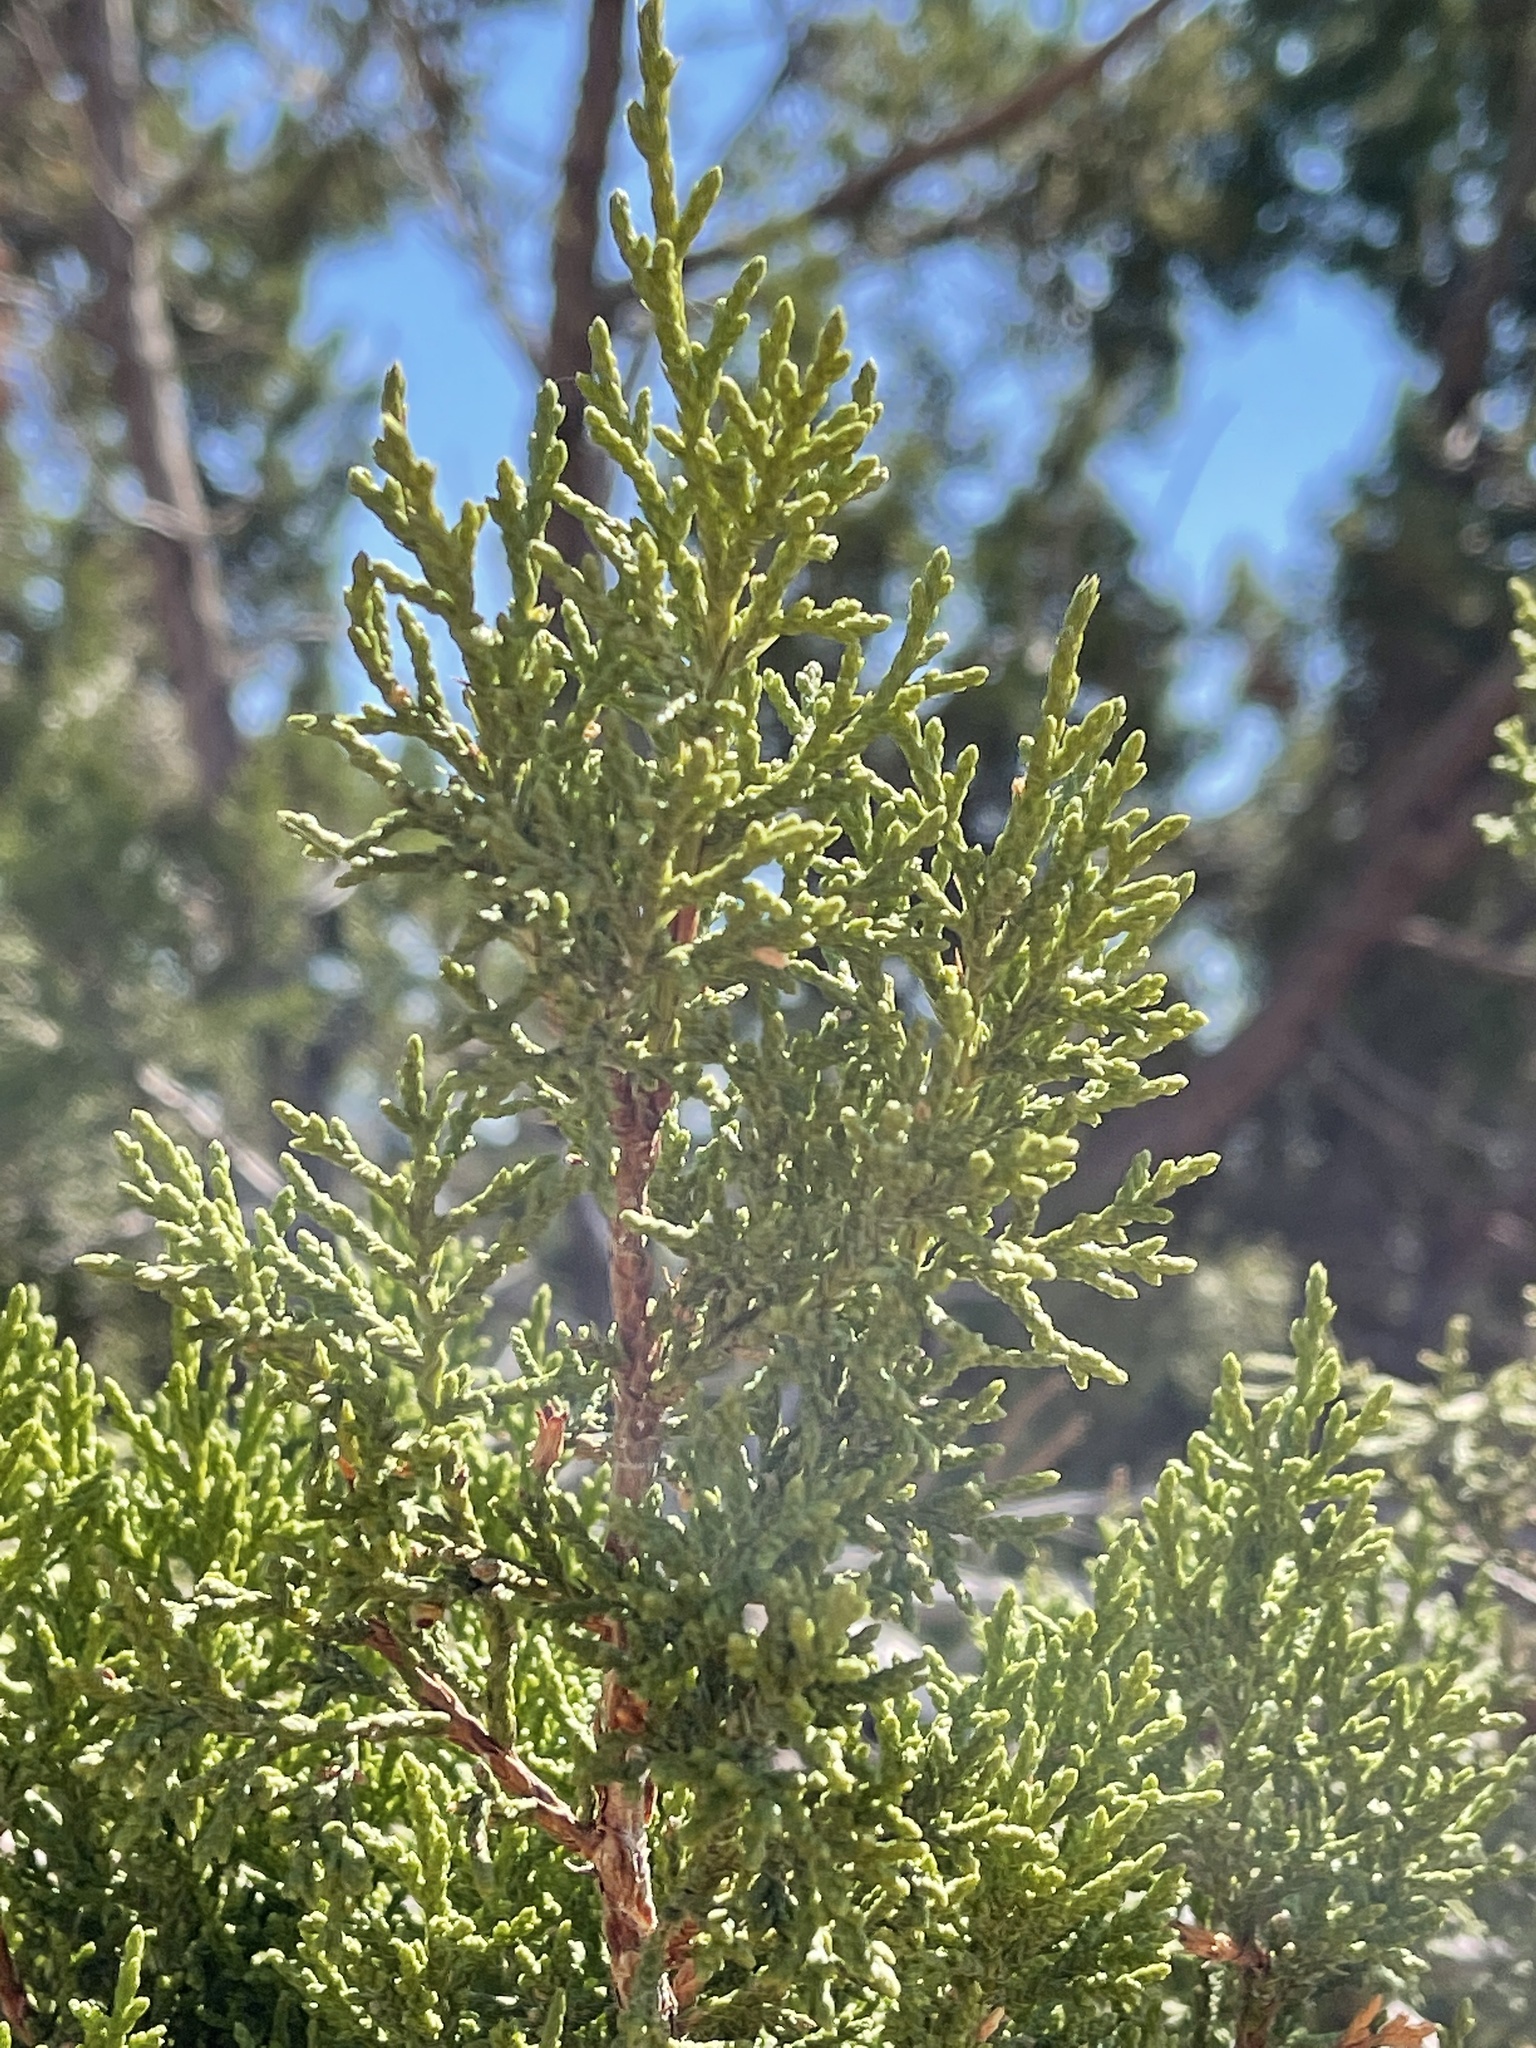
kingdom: Plantae
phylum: Tracheophyta
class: Pinopsida
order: Pinales
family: Cupressaceae
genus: Juniperus
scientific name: Juniperus monosperma
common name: One-seed juniper
